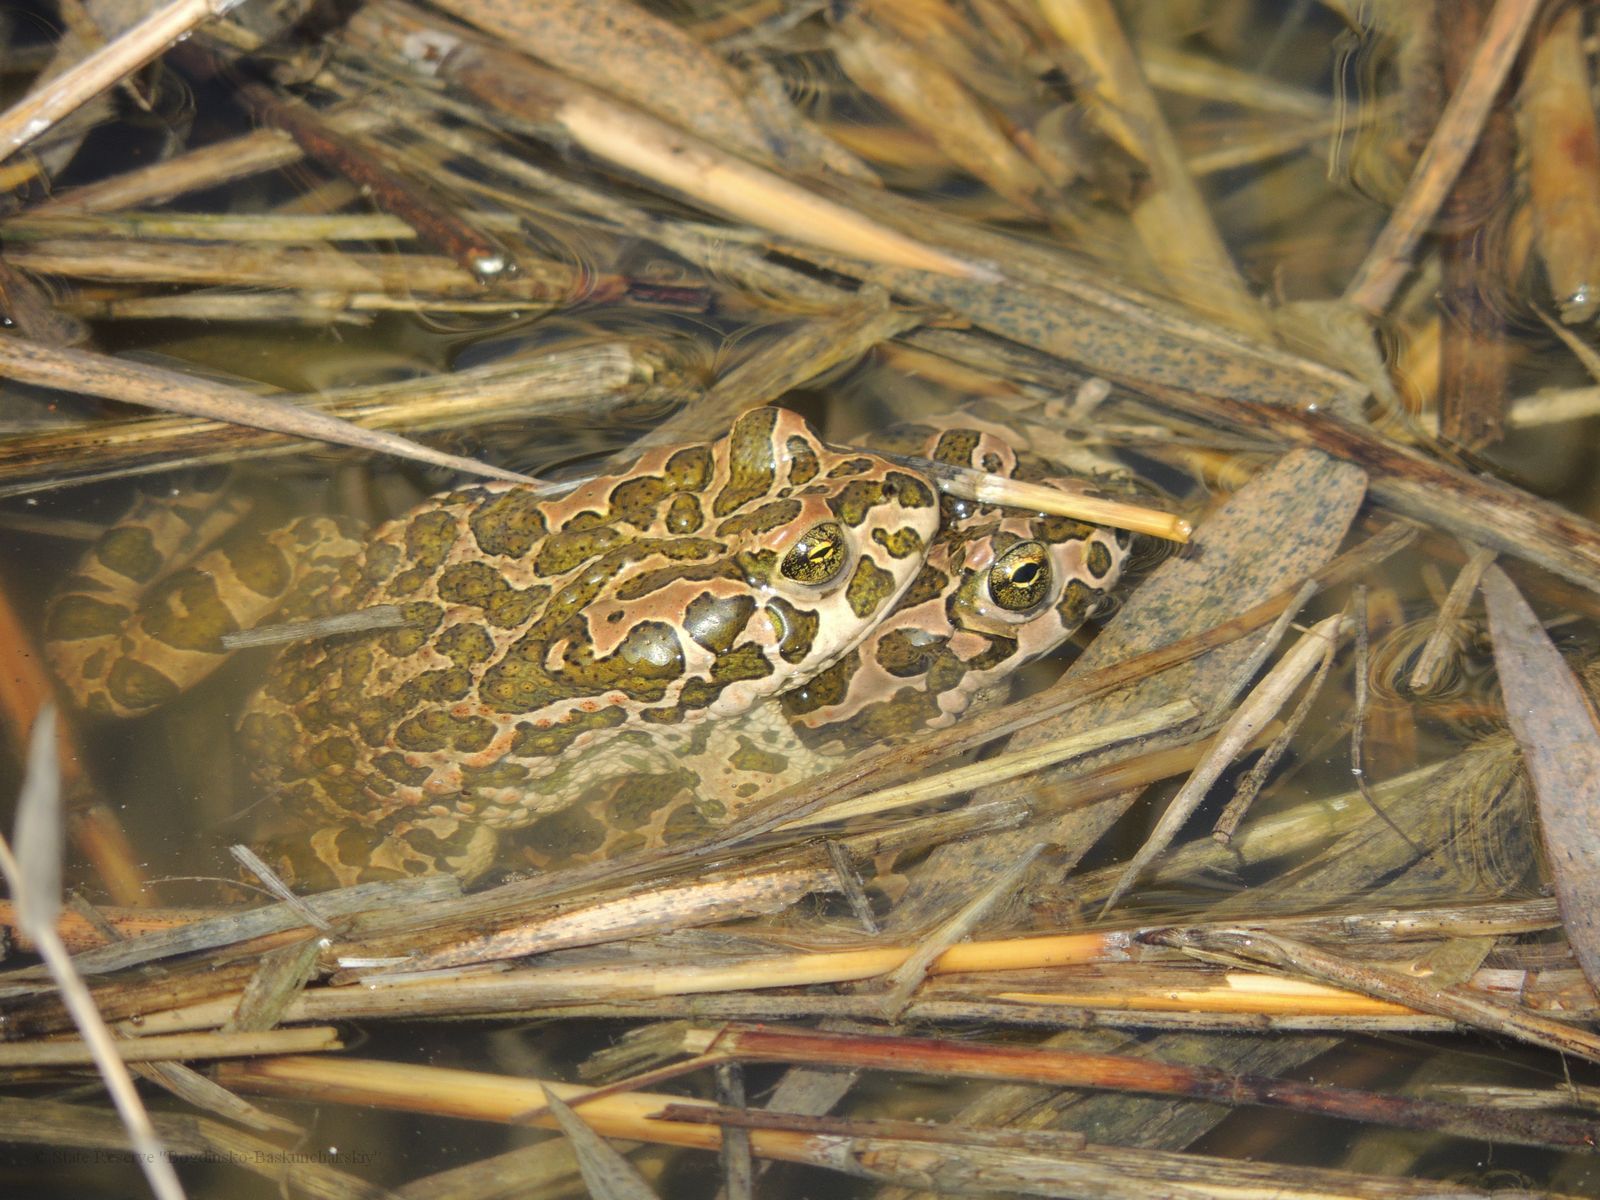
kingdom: Animalia
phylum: Chordata
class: Amphibia
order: Anura
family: Bufonidae
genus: Bufotes
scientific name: Bufotes viridis
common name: European green toad
